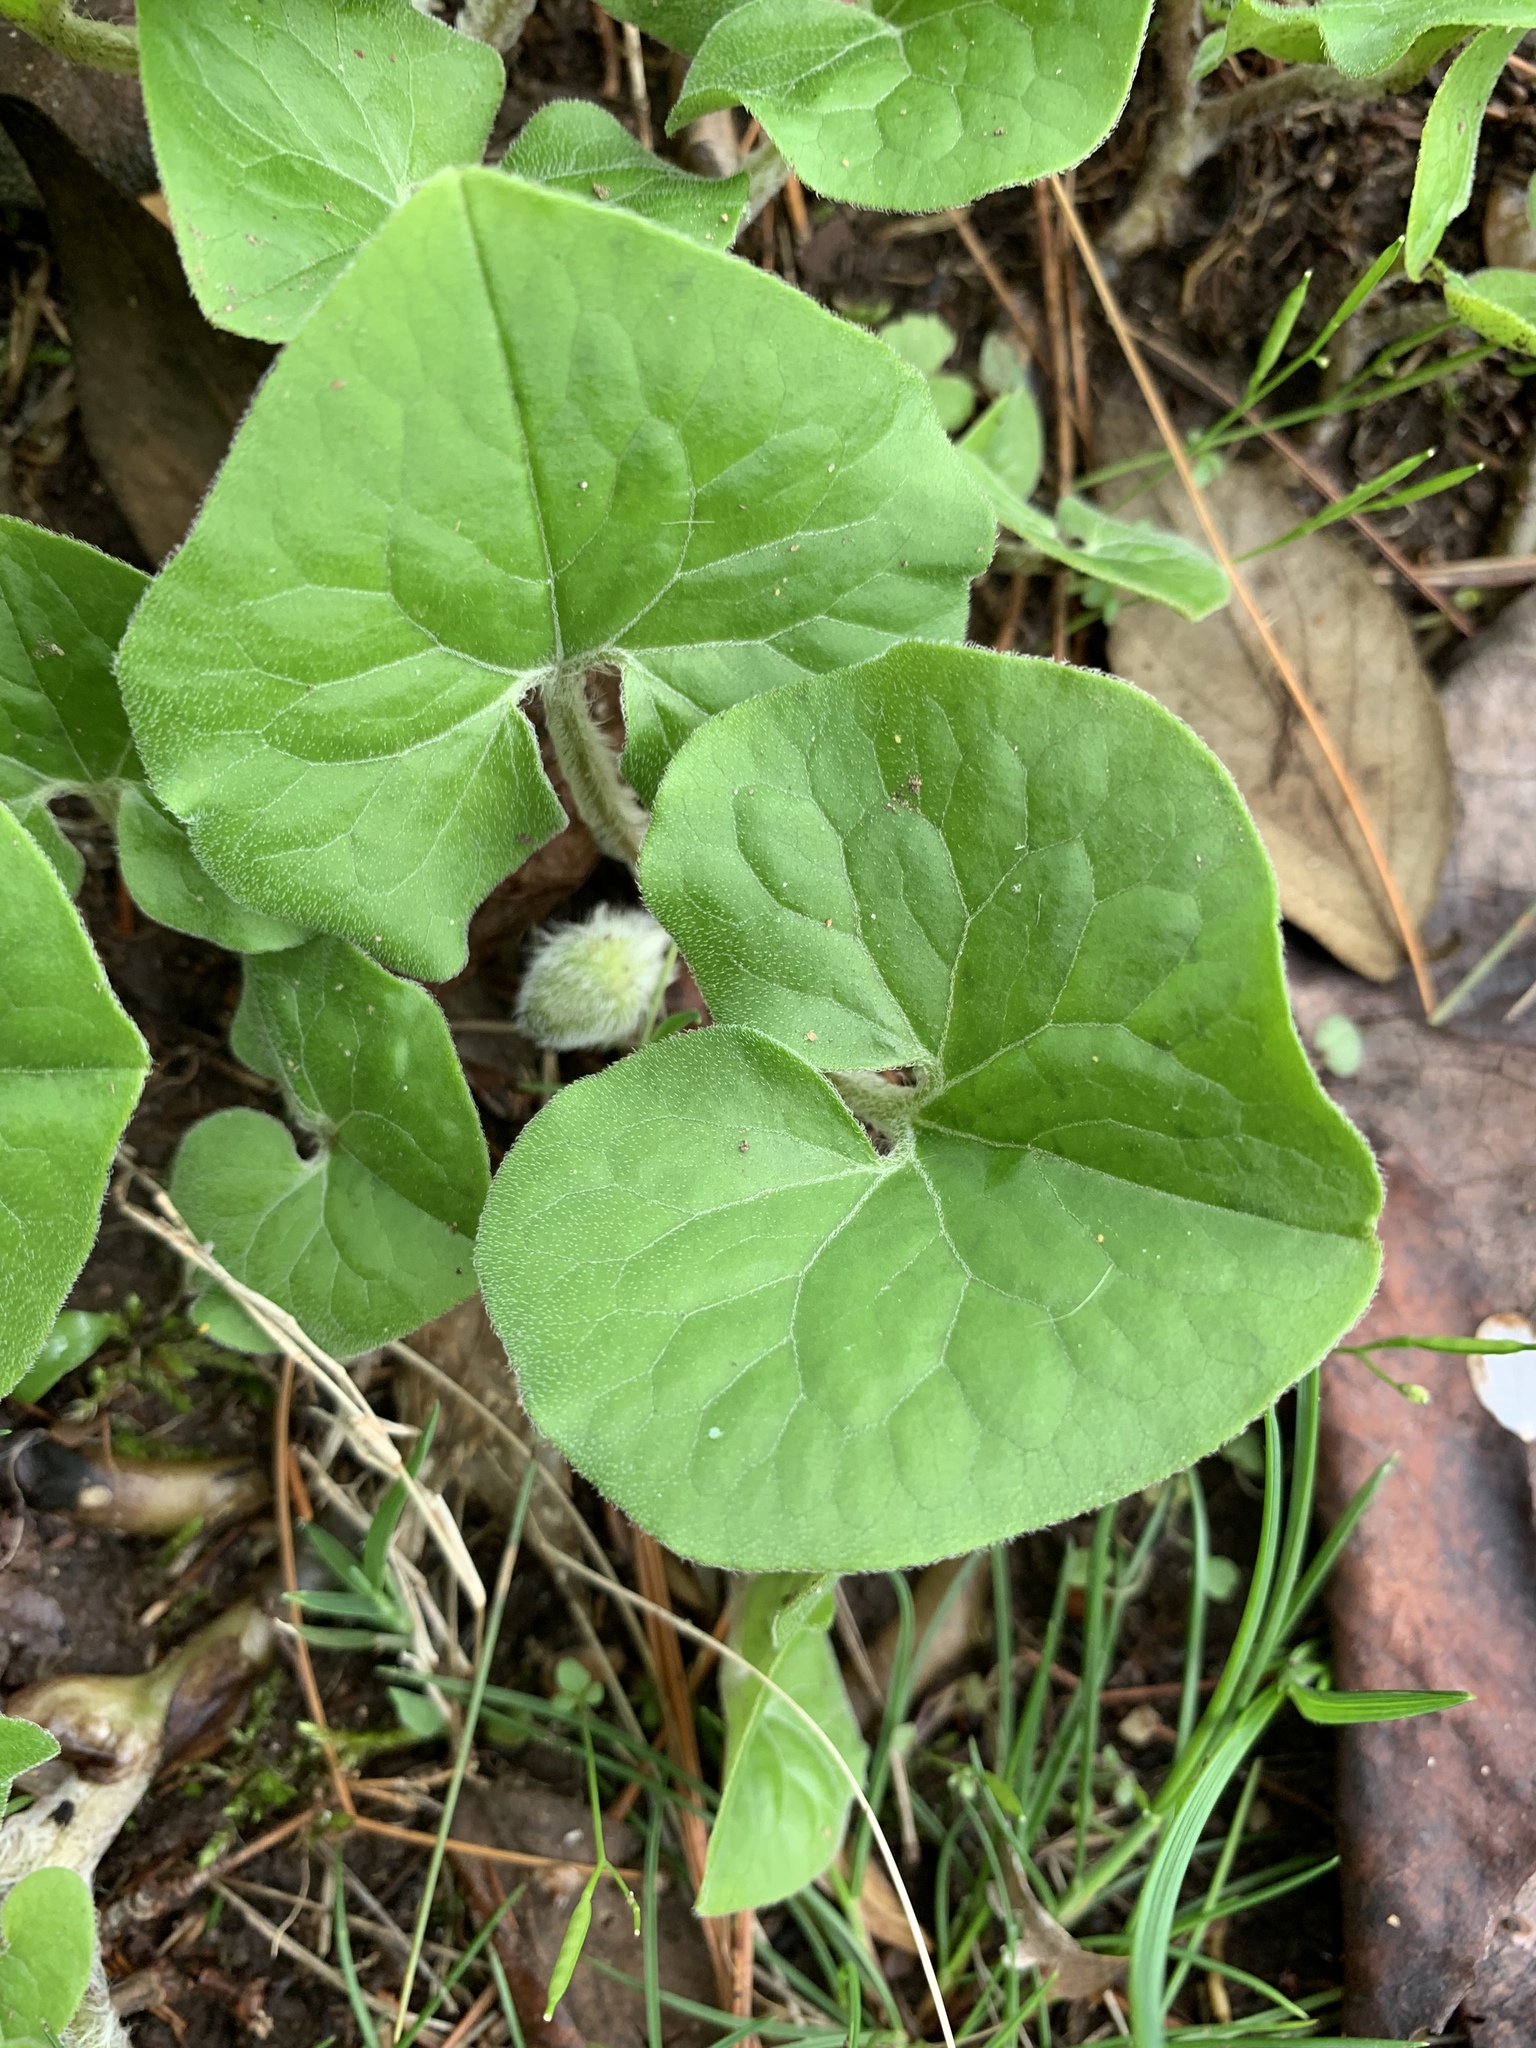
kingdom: Plantae
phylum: Tracheophyta
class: Magnoliopsida
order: Piperales
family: Aristolochiaceae
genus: Asarum
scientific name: Asarum canadense
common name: Wild ginger
